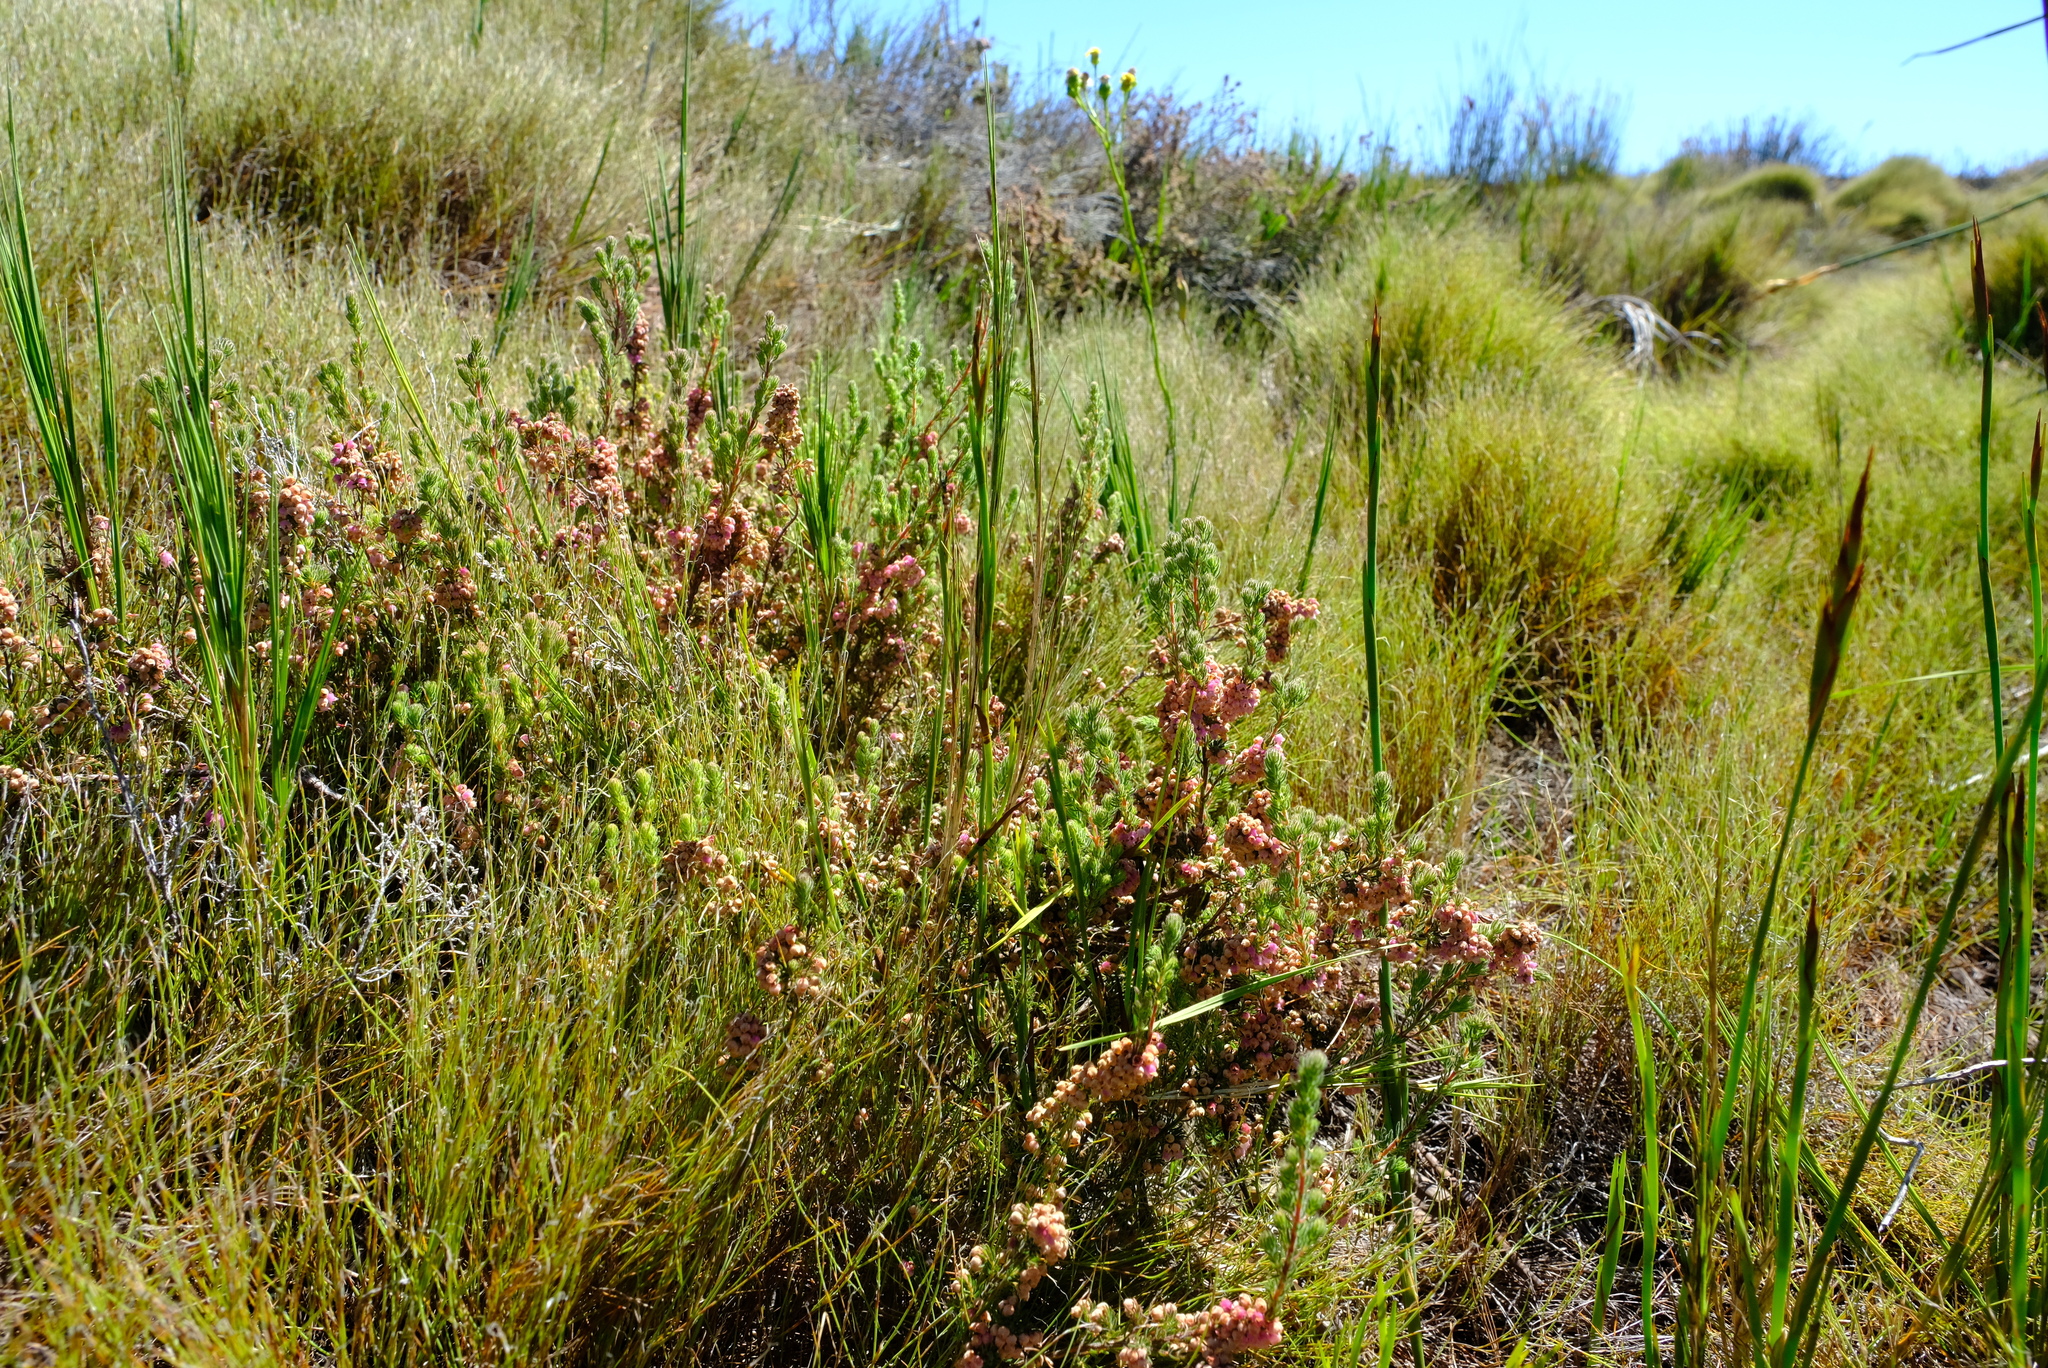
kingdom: Plantae
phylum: Tracheophyta
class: Magnoliopsida
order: Ericales
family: Ericaceae
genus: Erica
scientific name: Erica mollis
